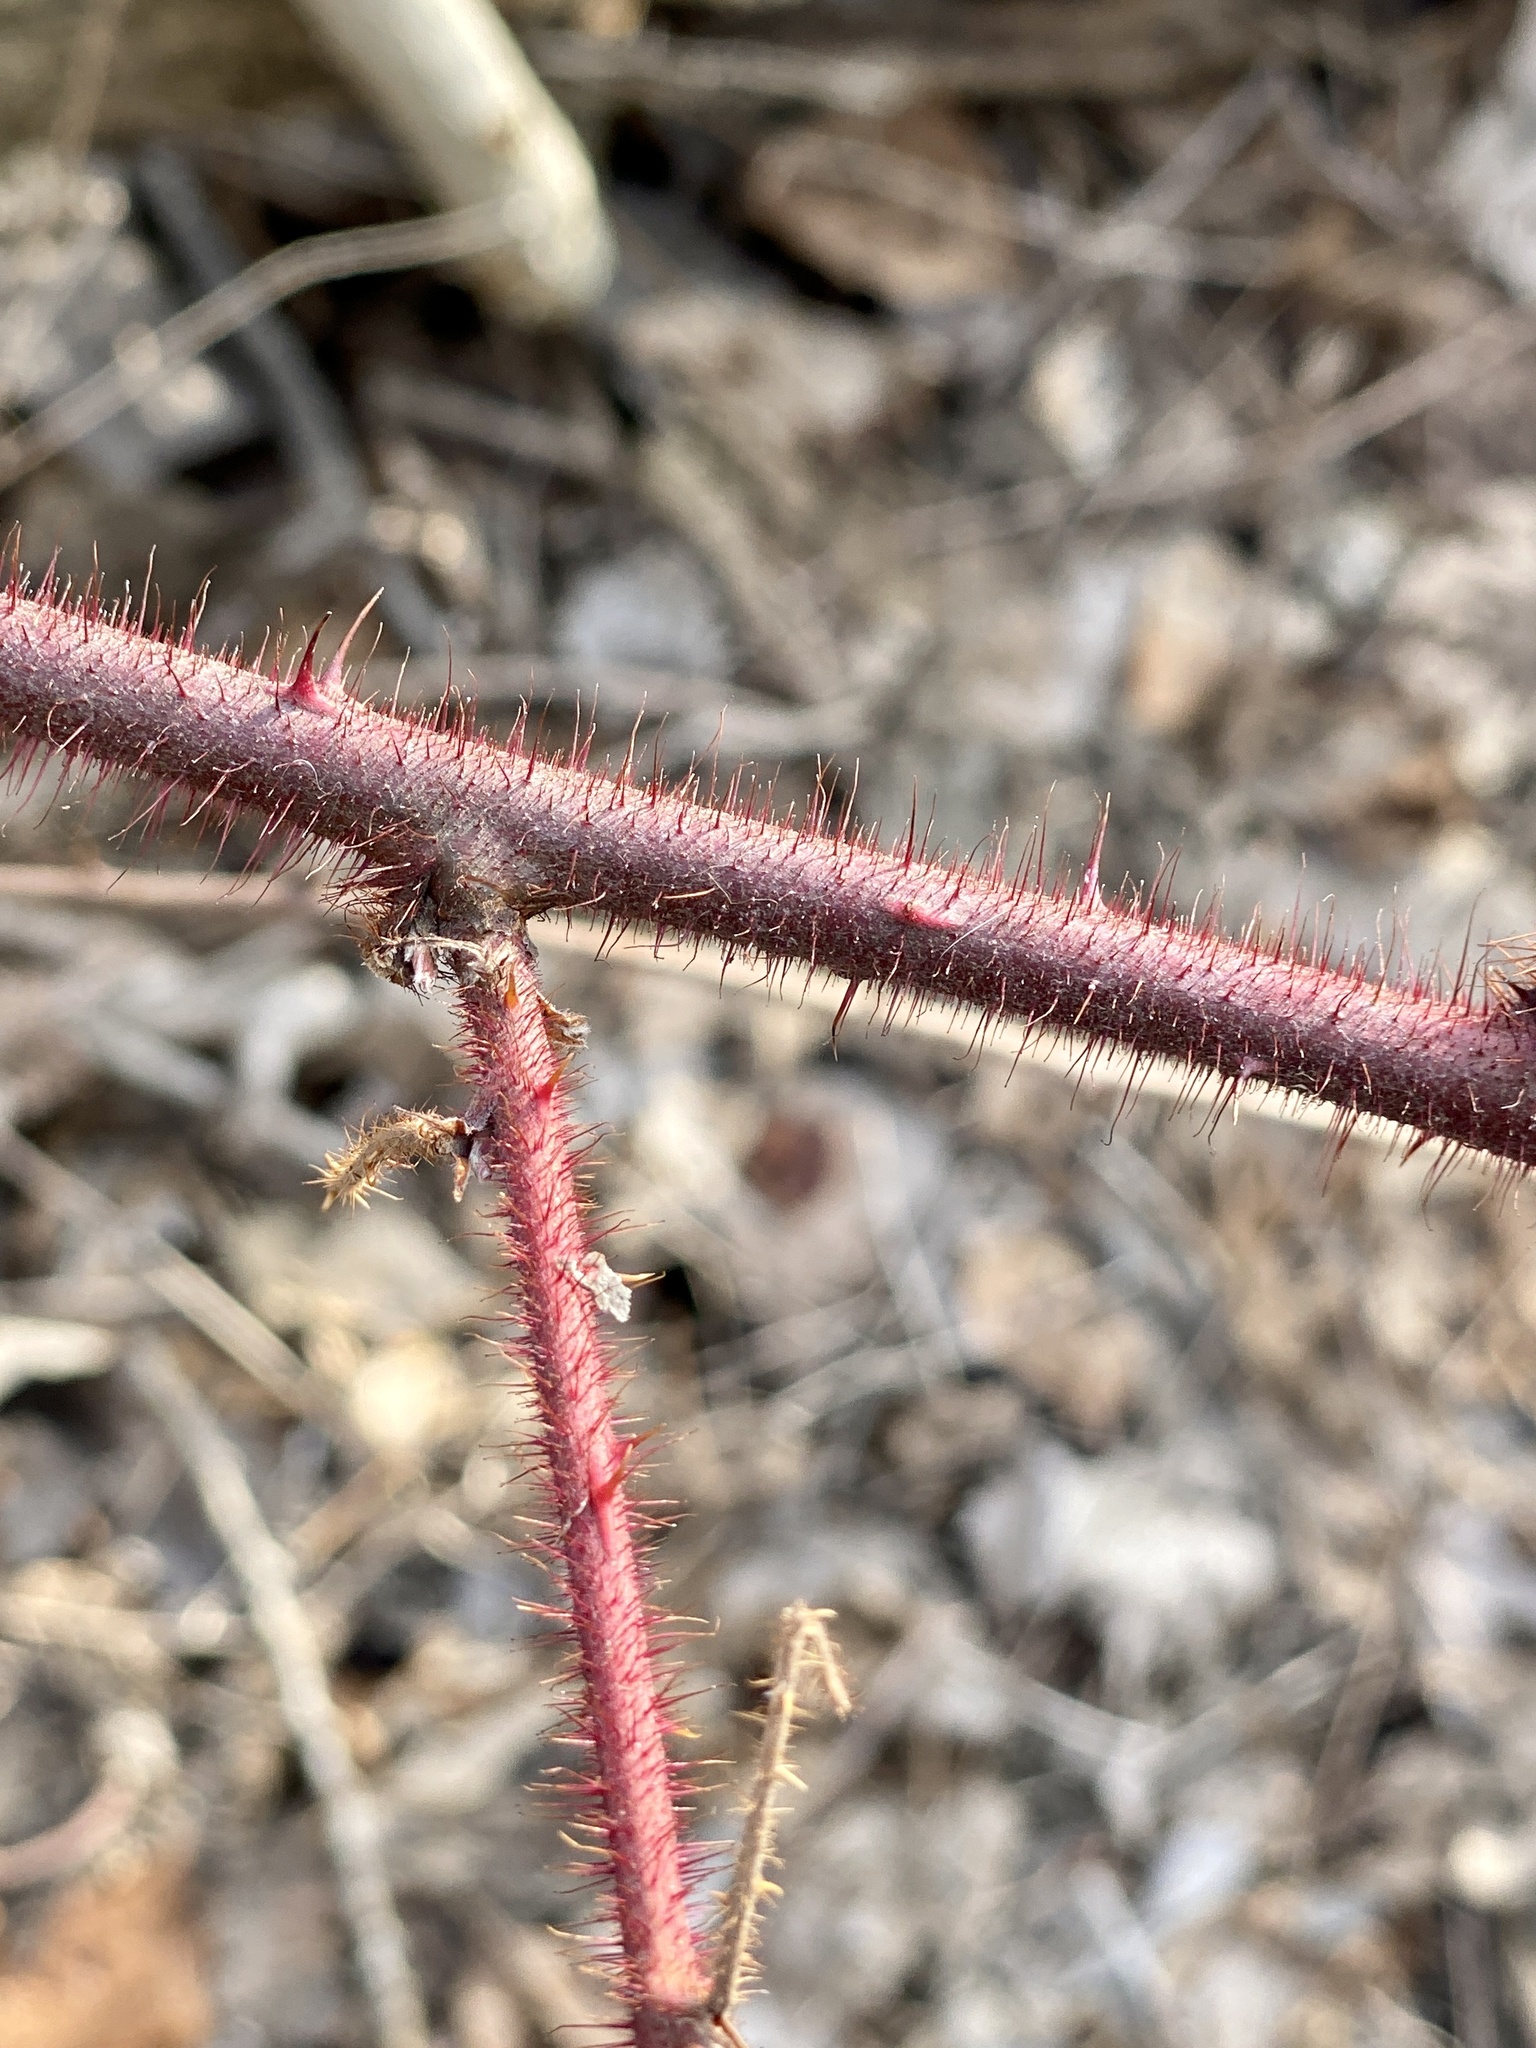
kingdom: Plantae
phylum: Tracheophyta
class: Magnoliopsida
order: Rosales
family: Rosaceae
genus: Rubus
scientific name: Rubus phoenicolasius
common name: Japanese wineberry
